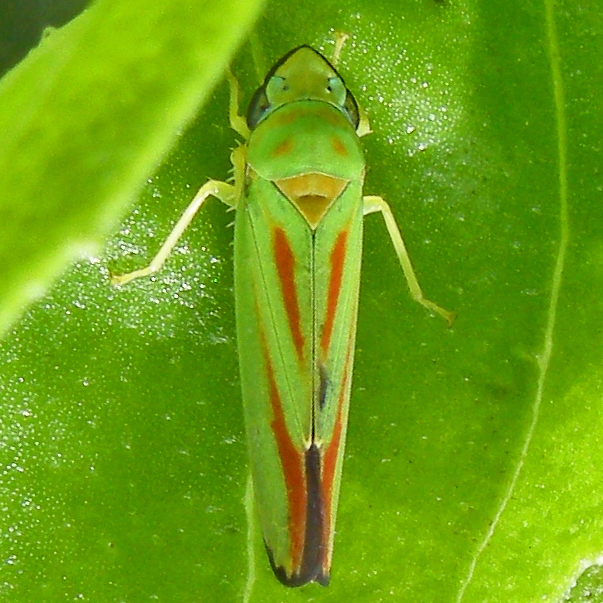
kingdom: Animalia
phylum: Arthropoda
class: Insecta
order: Hemiptera
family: Cicadellidae
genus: Graphocephala
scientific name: Graphocephala fennahi
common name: Rhododendron leafhopper
